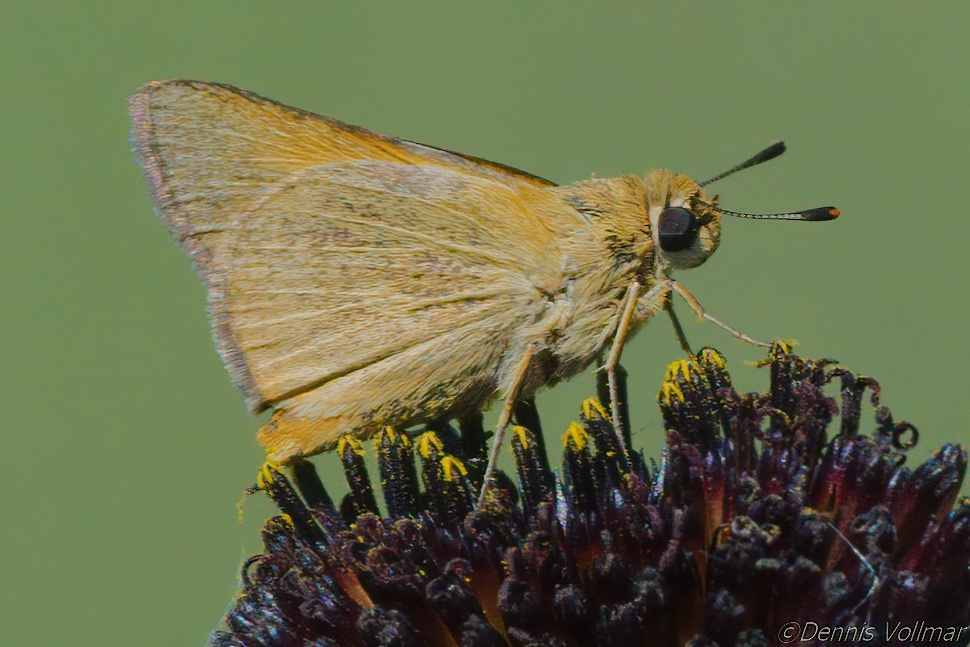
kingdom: Animalia
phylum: Arthropoda
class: Insecta
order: Lepidoptera
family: Hesperiidae
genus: Atrytone
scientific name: Atrytone arogos
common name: Arogos skipper
